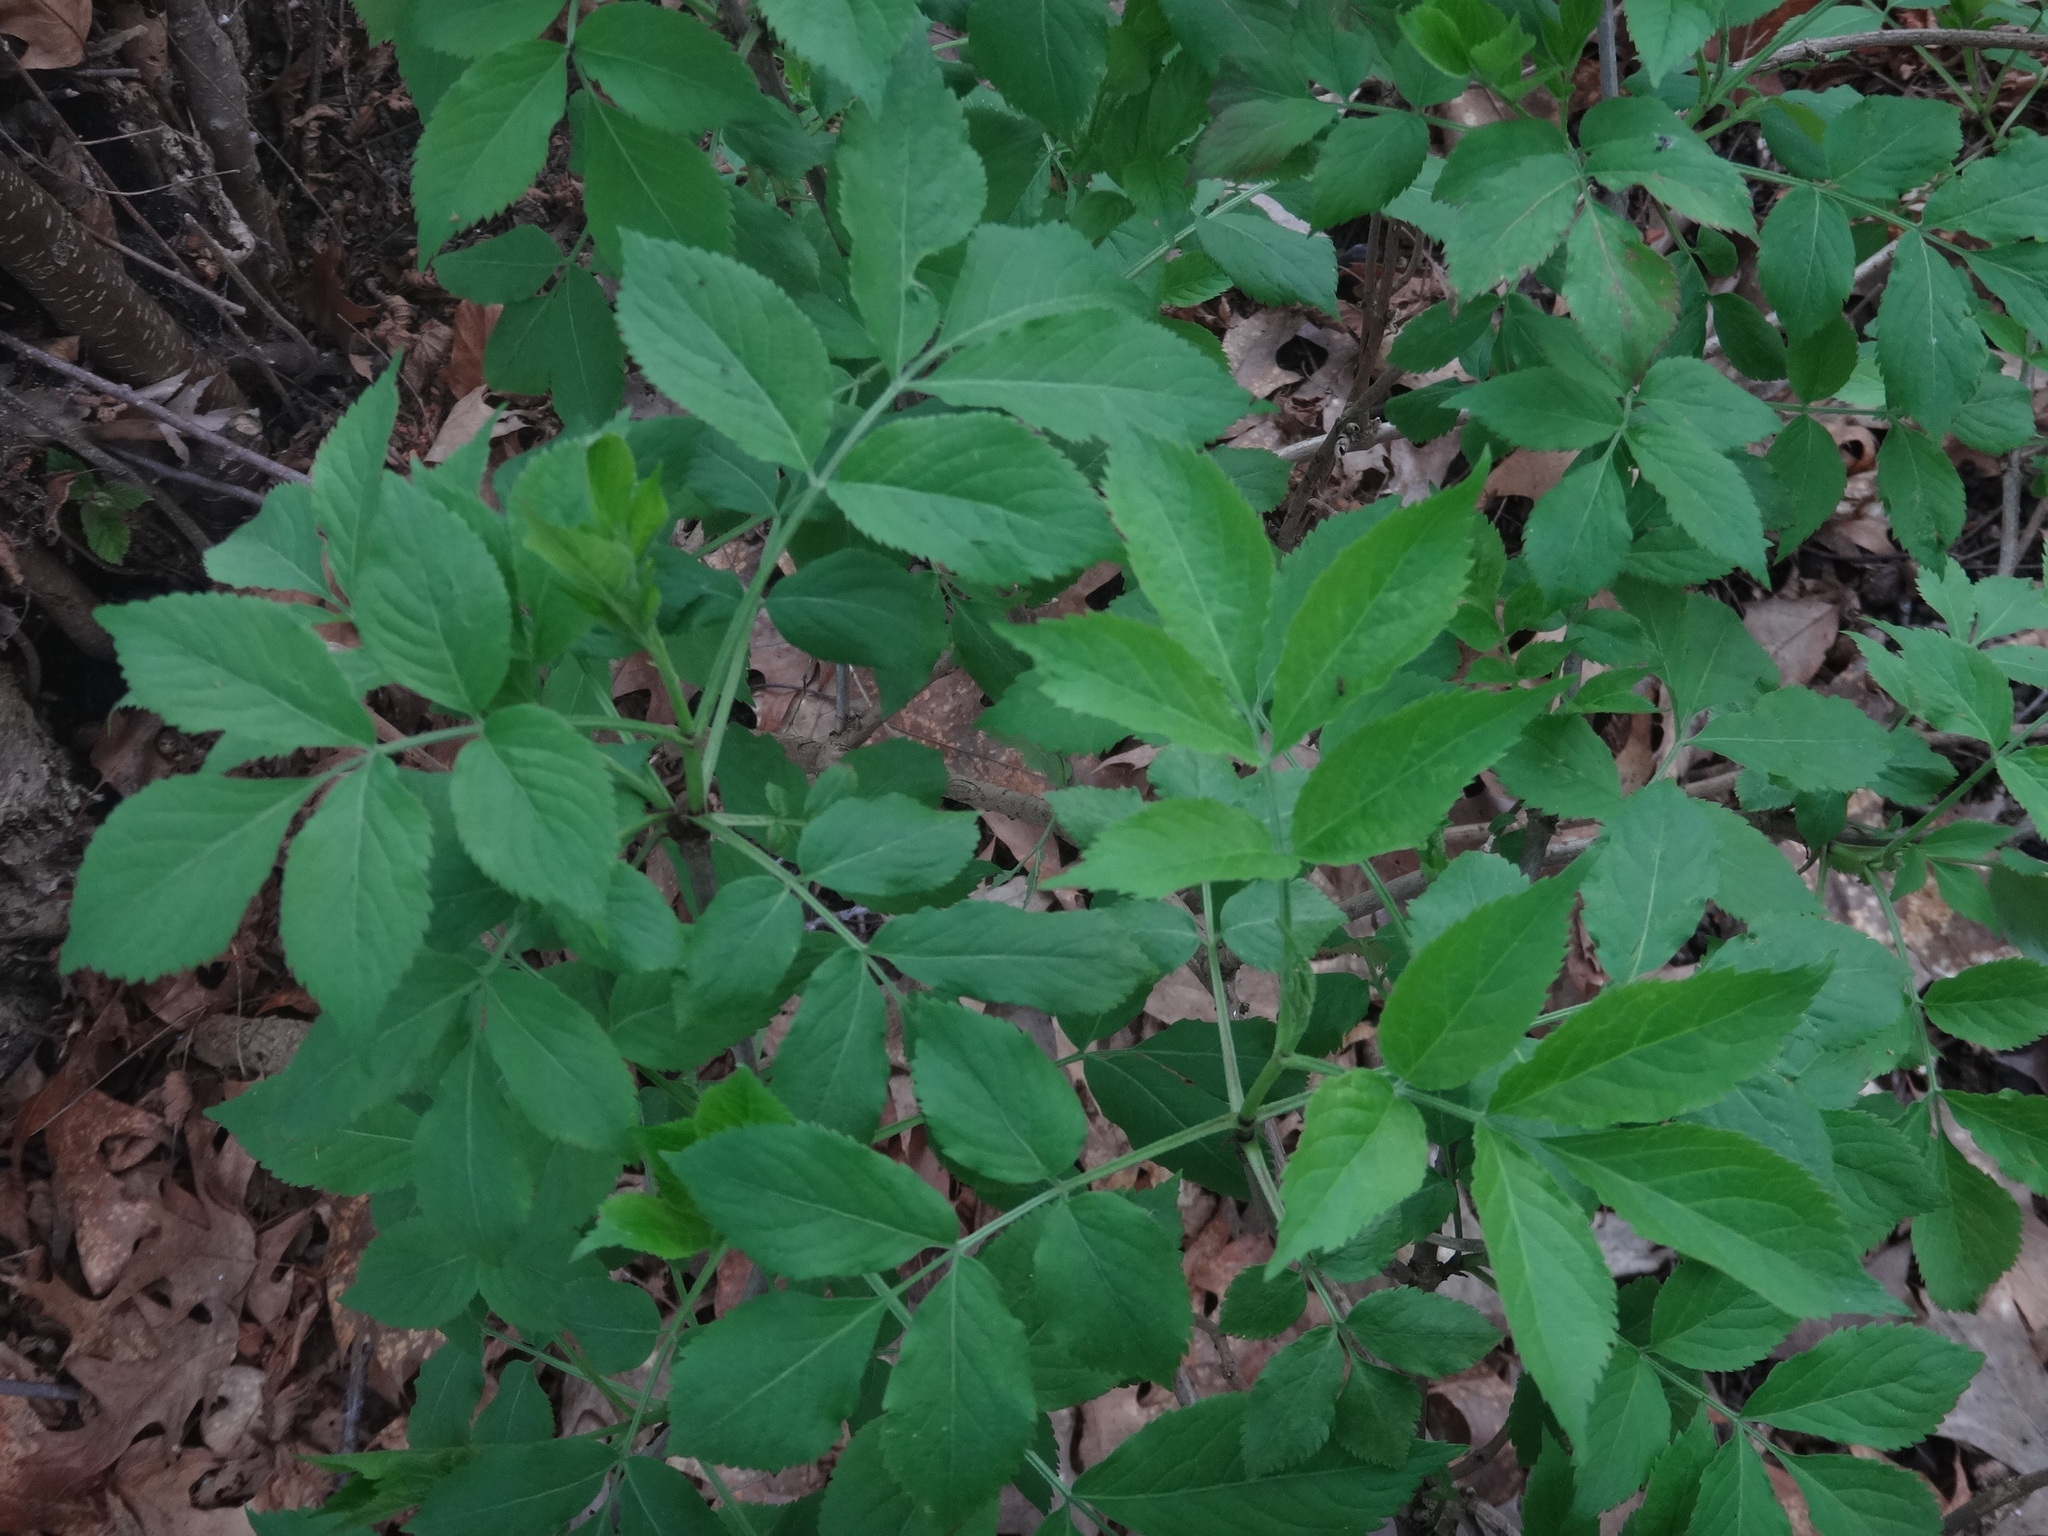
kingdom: Plantae
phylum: Tracheophyta
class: Magnoliopsida
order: Dipsacales
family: Viburnaceae
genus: Sambucus
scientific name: Sambucus nigra
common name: Elder
